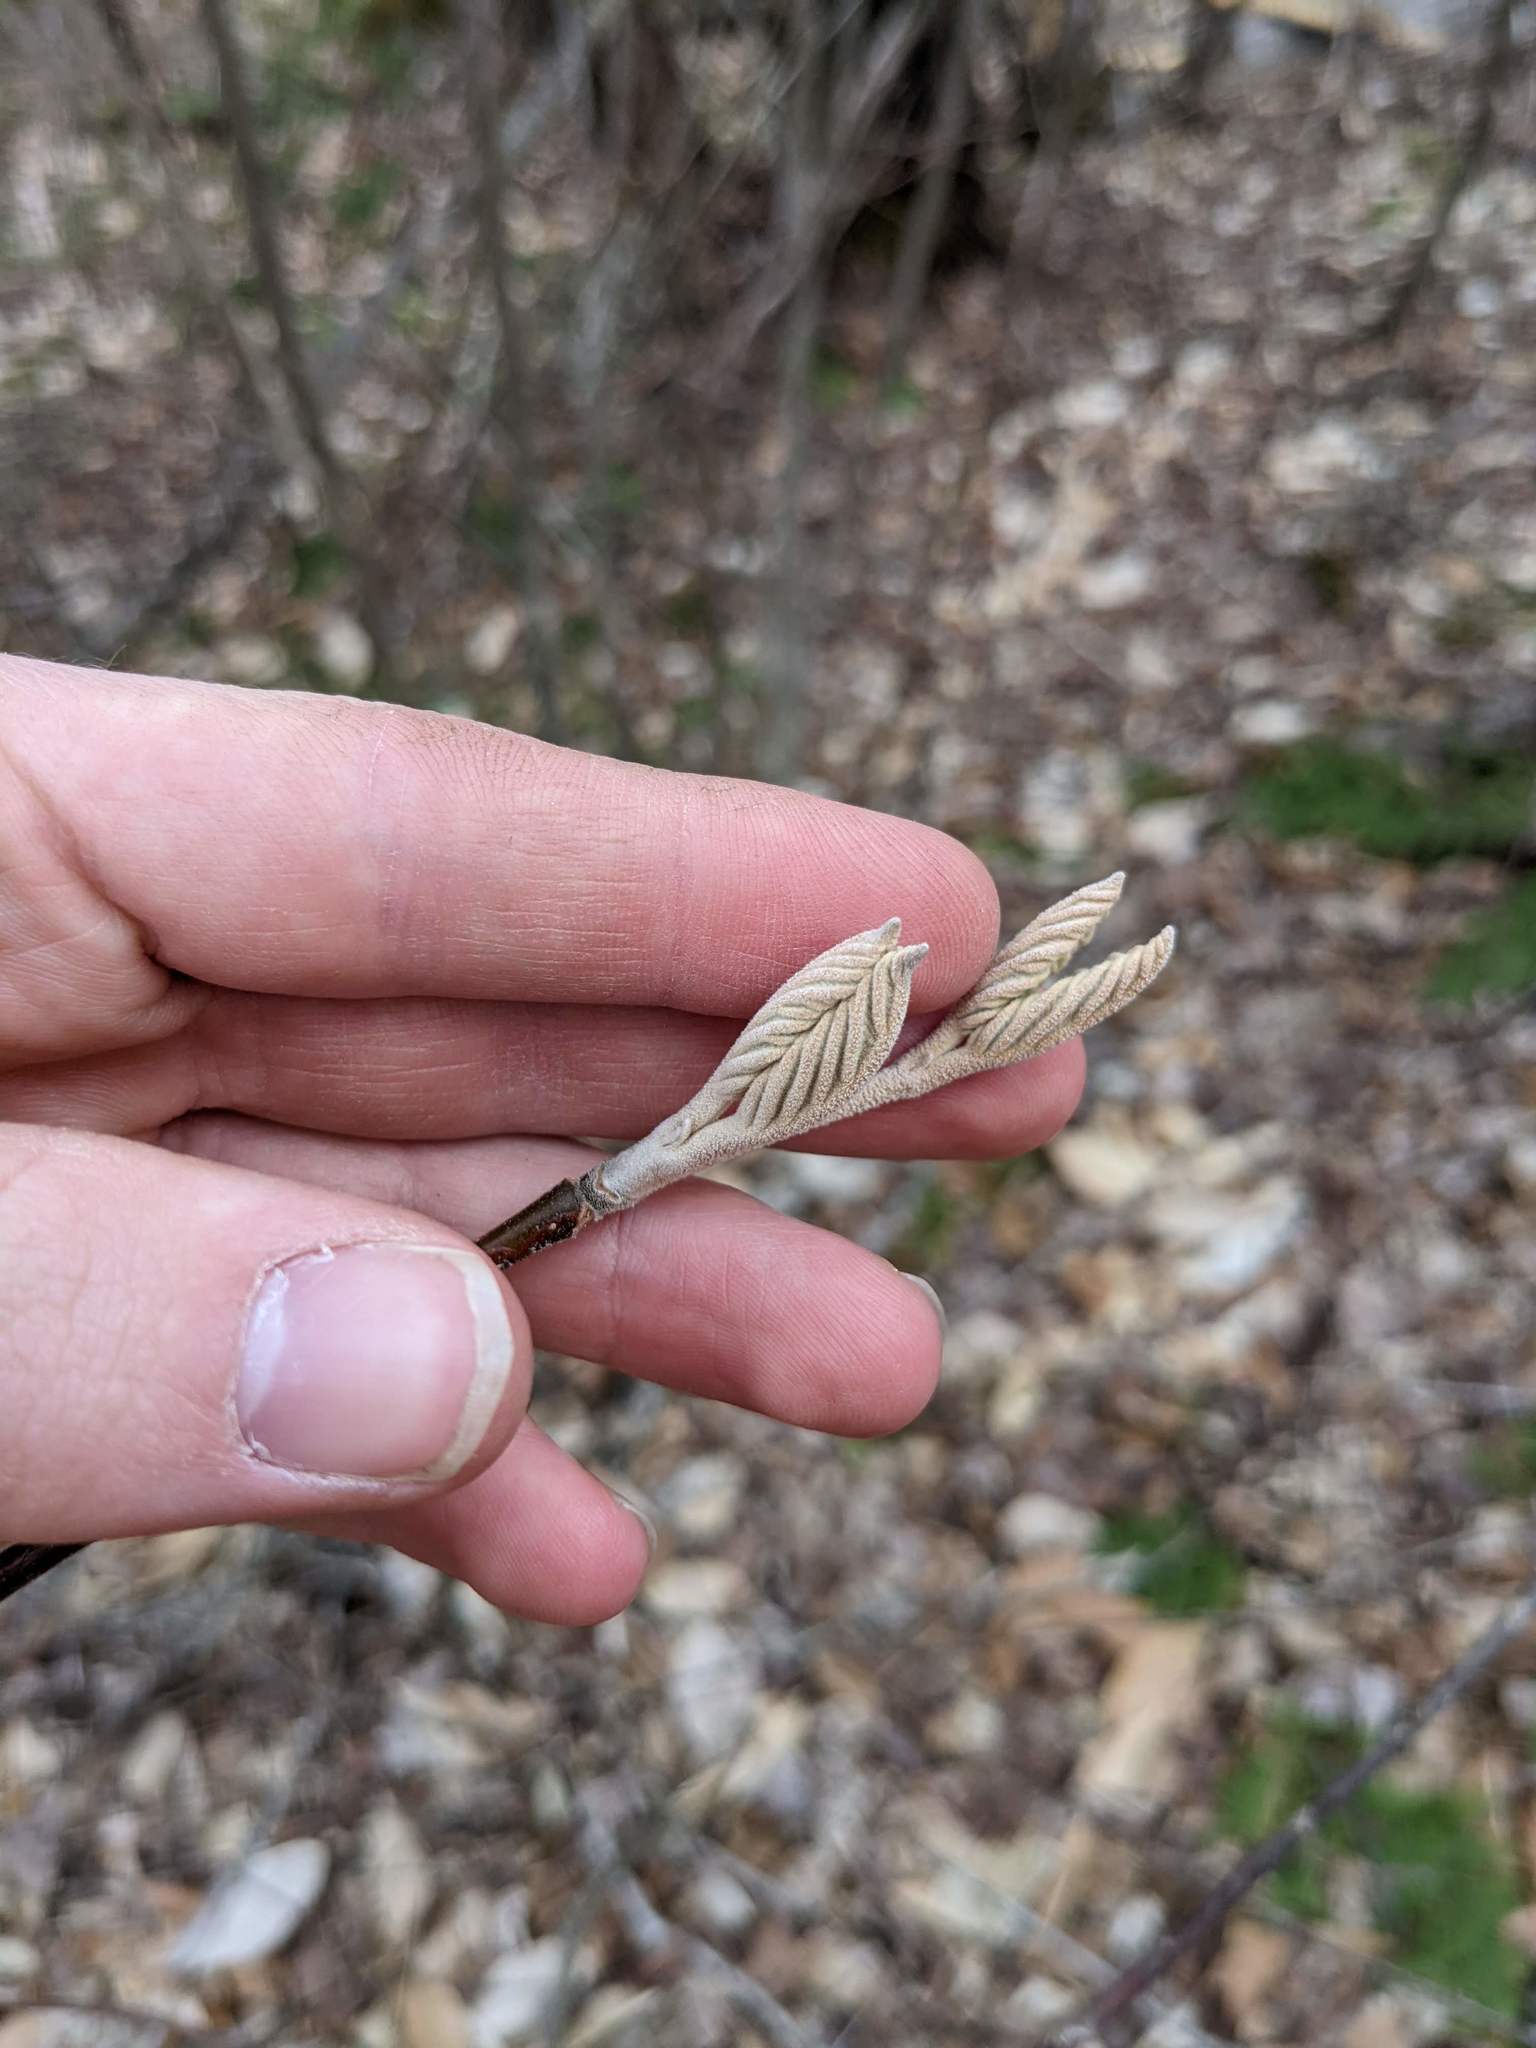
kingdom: Plantae
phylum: Tracheophyta
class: Magnoliopsida
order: Dipsacales
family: Viburnaceae
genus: Viburnum
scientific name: Viburnum lantanoides
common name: Hobblebush
